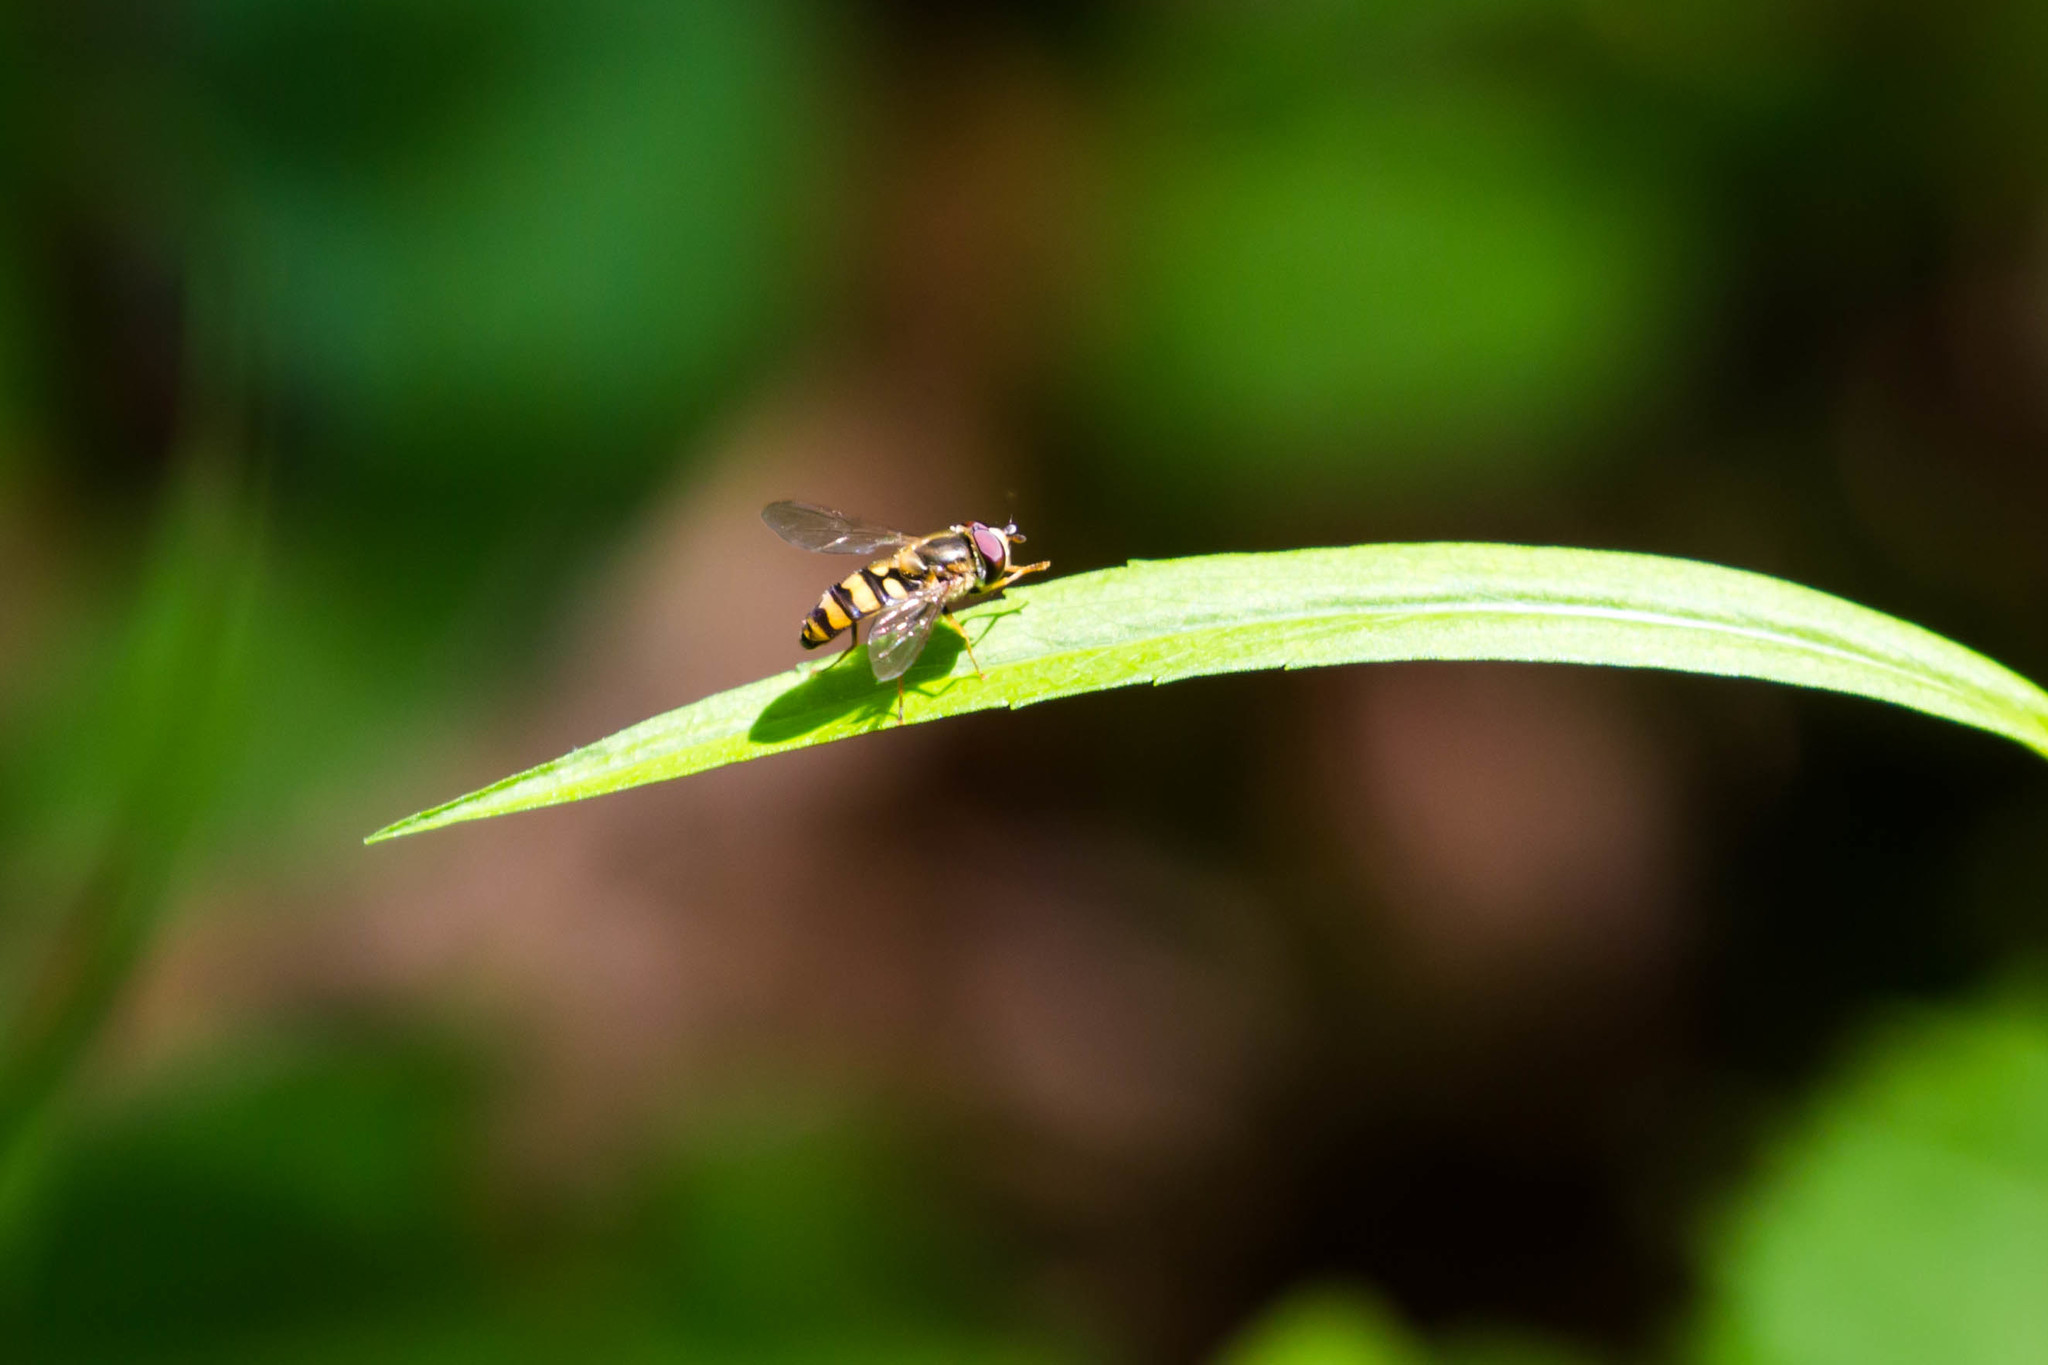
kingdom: Animalia
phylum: Arthropoda
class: Insecta
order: Diptera
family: Syrphidae
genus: Eupeodes
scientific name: Eupeodes
